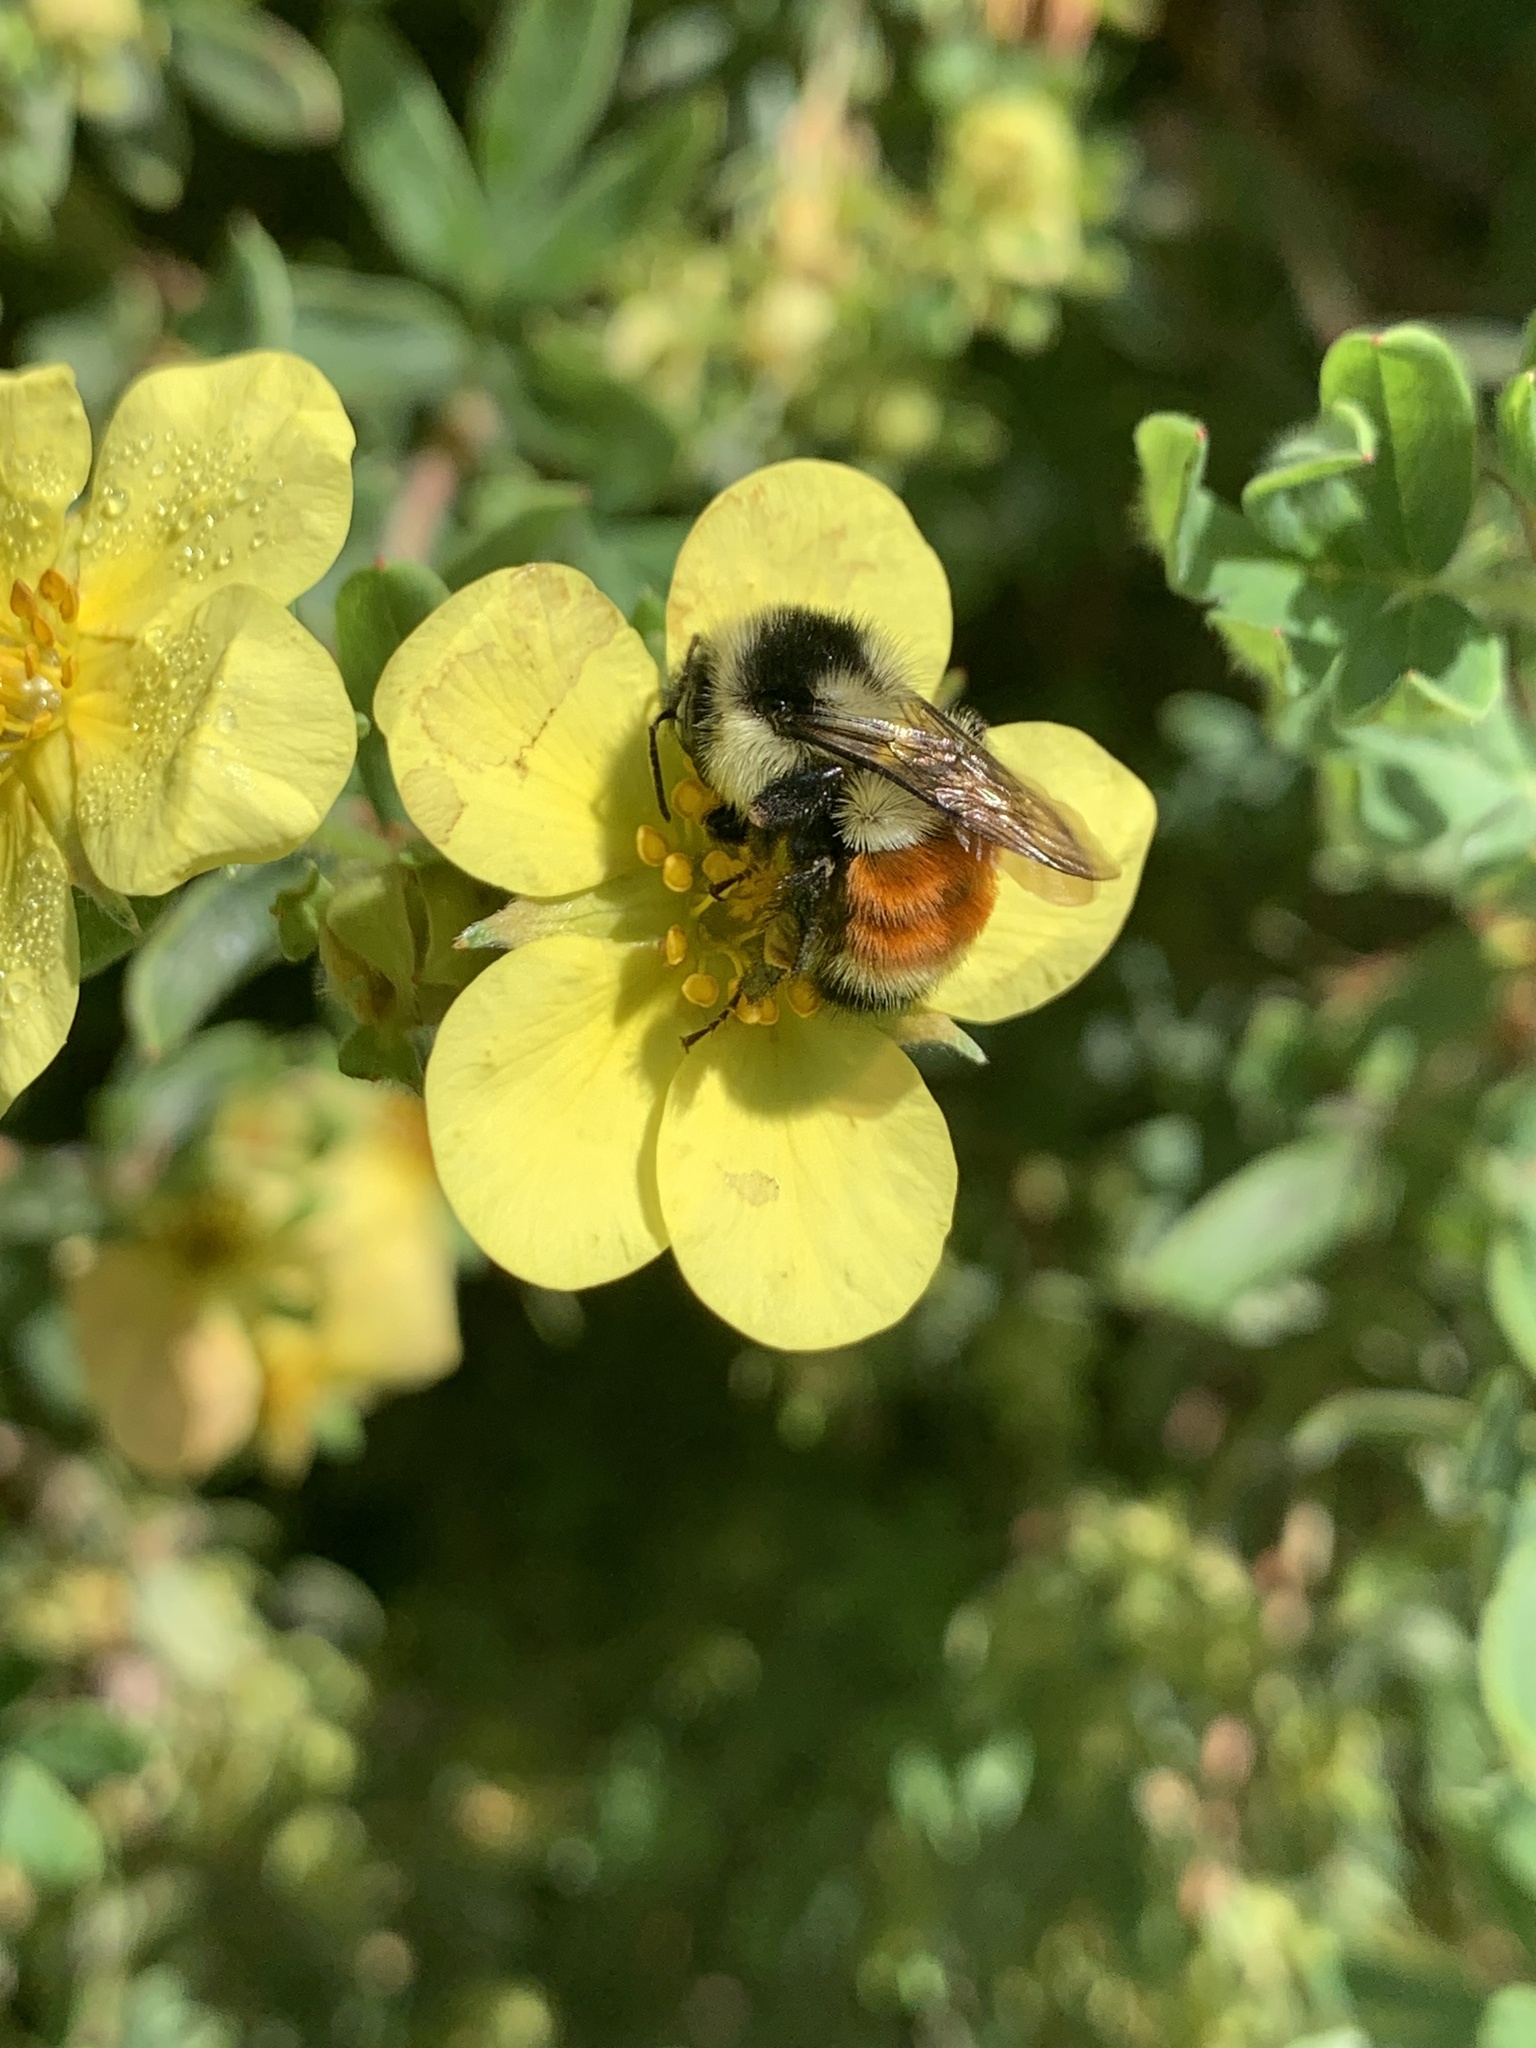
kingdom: Animalia
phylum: Arthropoda
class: Insecta
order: Hymenoptera
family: Apidae
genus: Bombus
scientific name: Bombus ternarius
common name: Tri-colored bumble bee
